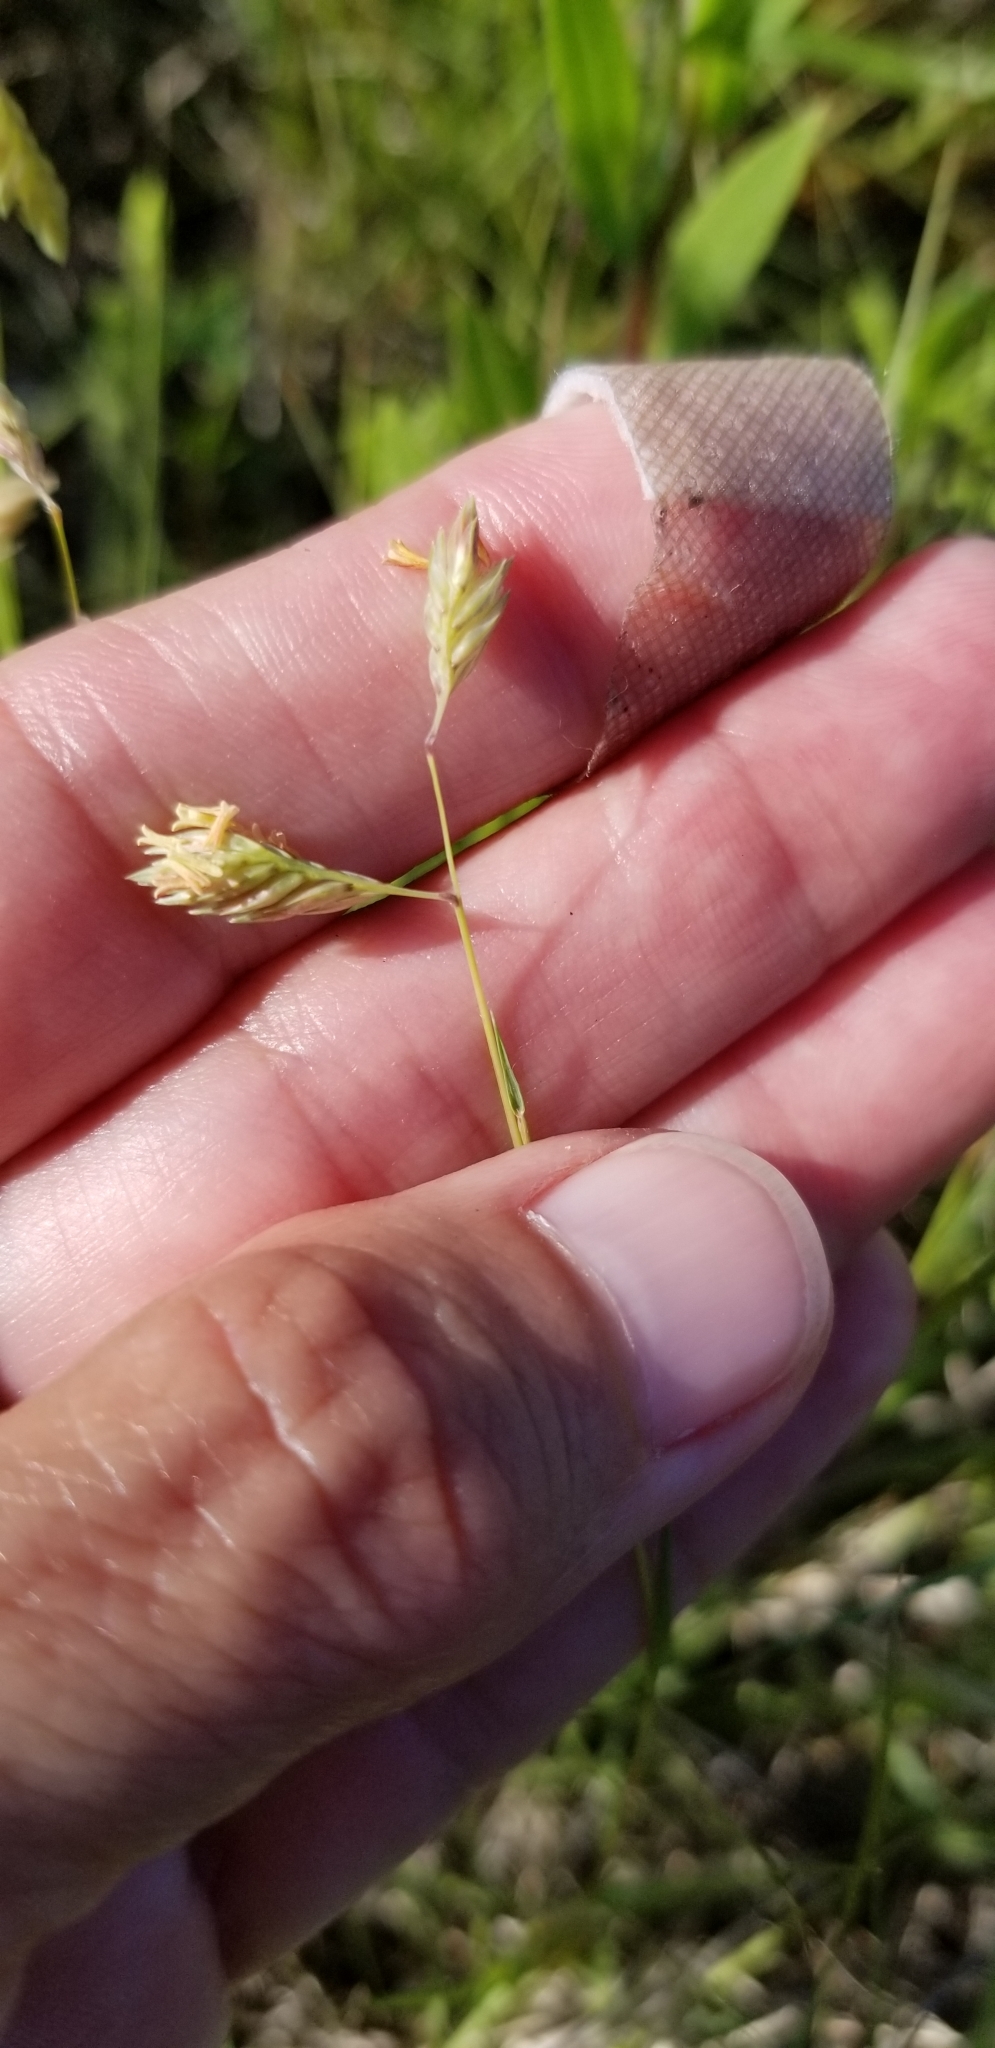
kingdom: Plantae
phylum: Tracheophyta
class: Liliopsida
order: Poales
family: Poaceae
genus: Bouteloua
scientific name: Bouteloua dactyloides
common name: Buffalo grass
